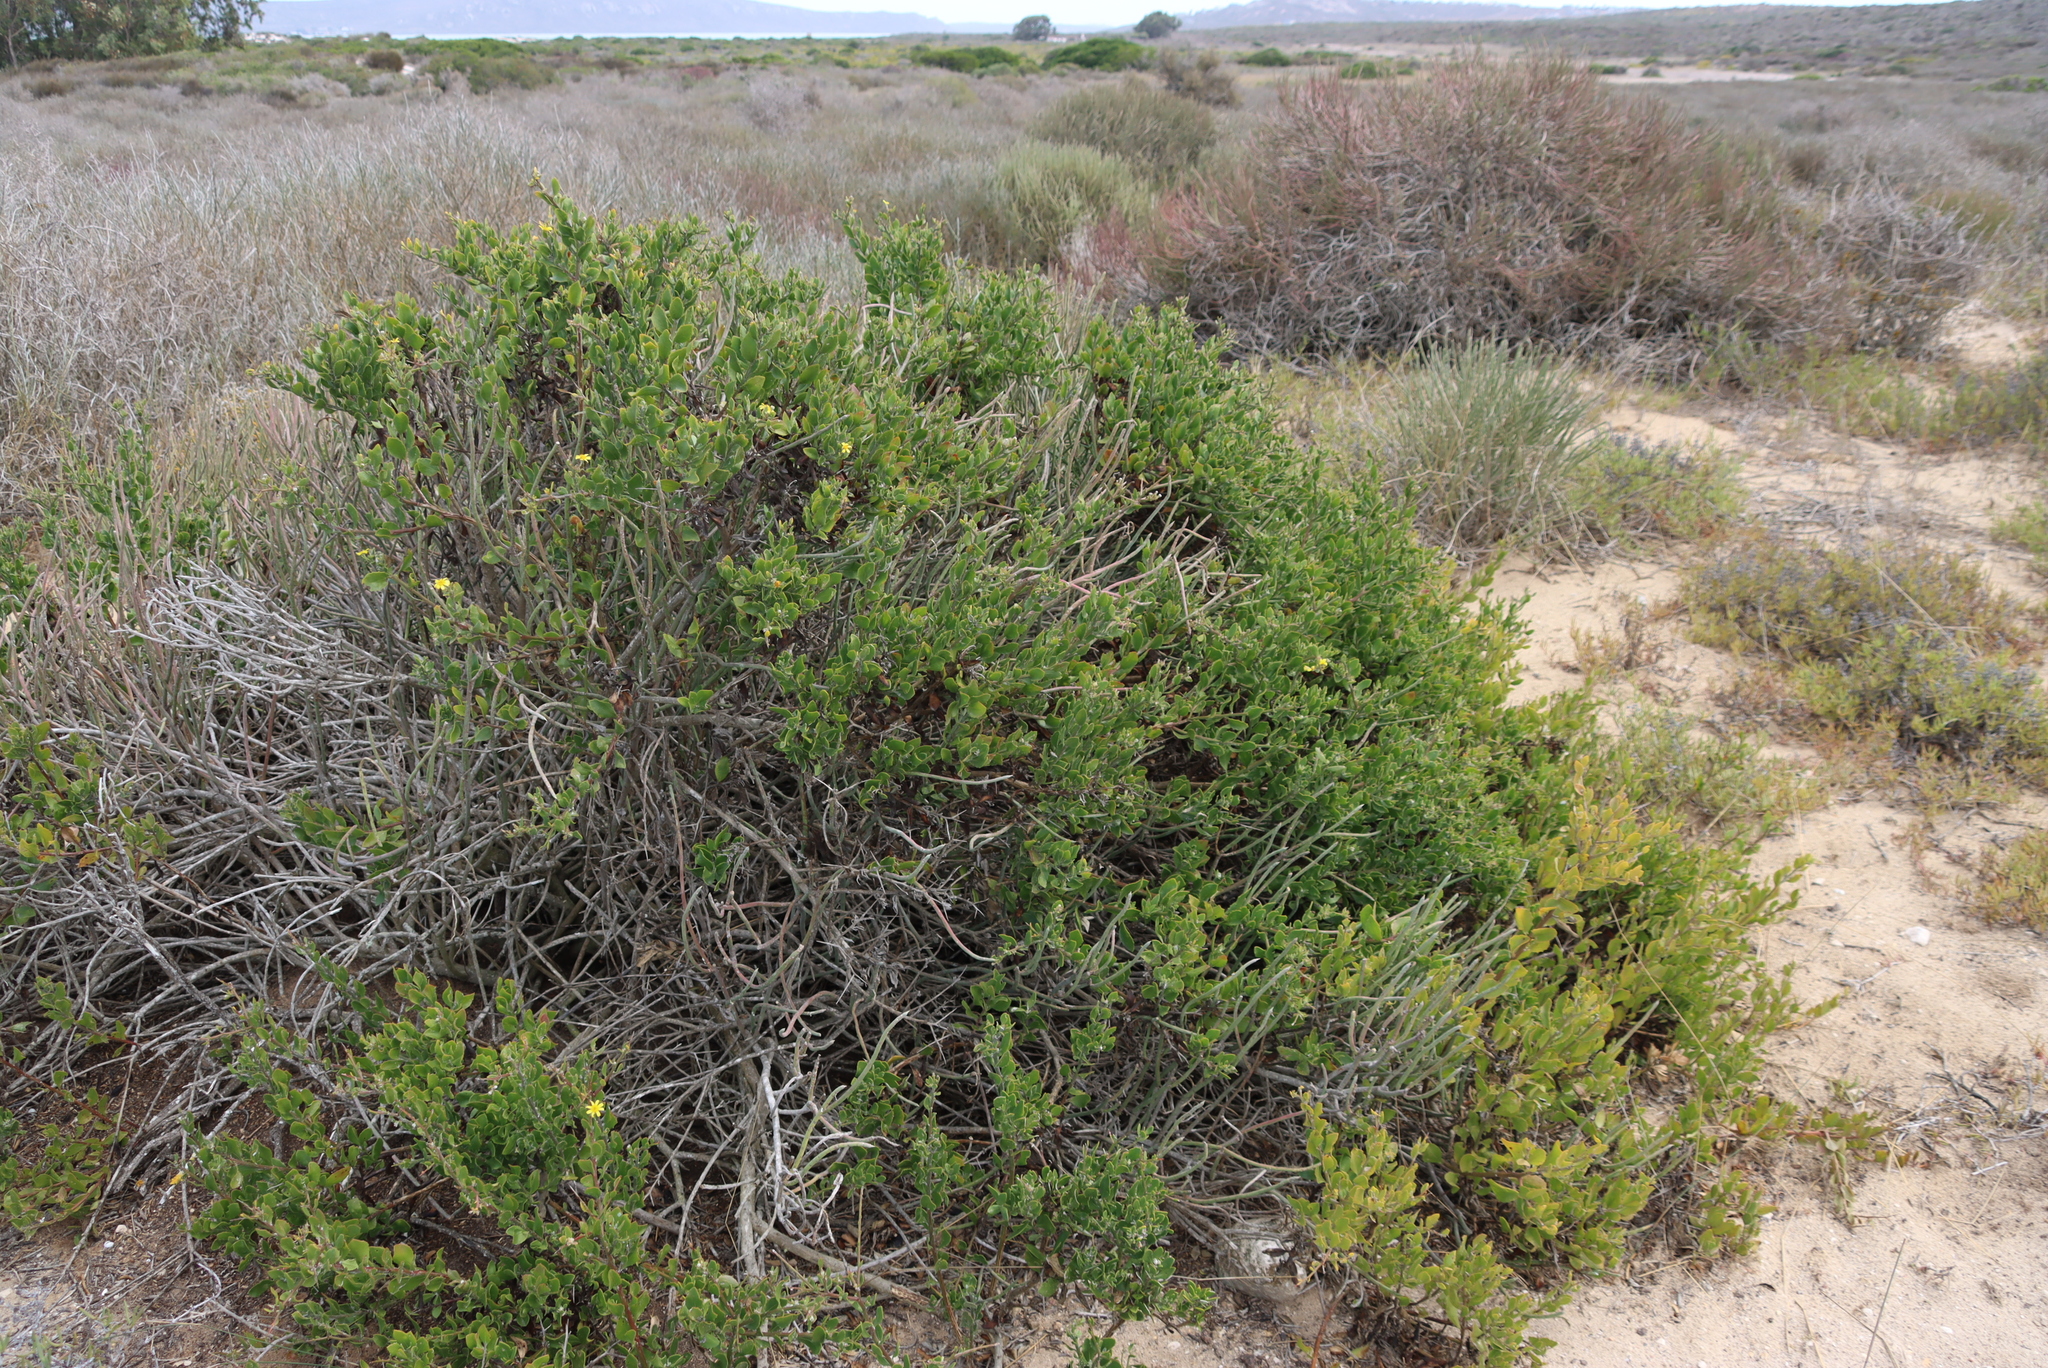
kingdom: Plantae
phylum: Tracheophyta
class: Magnoliopsida
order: Asterales
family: Asteraceae
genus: Osteospermum
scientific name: Osteospermum moniliferum
